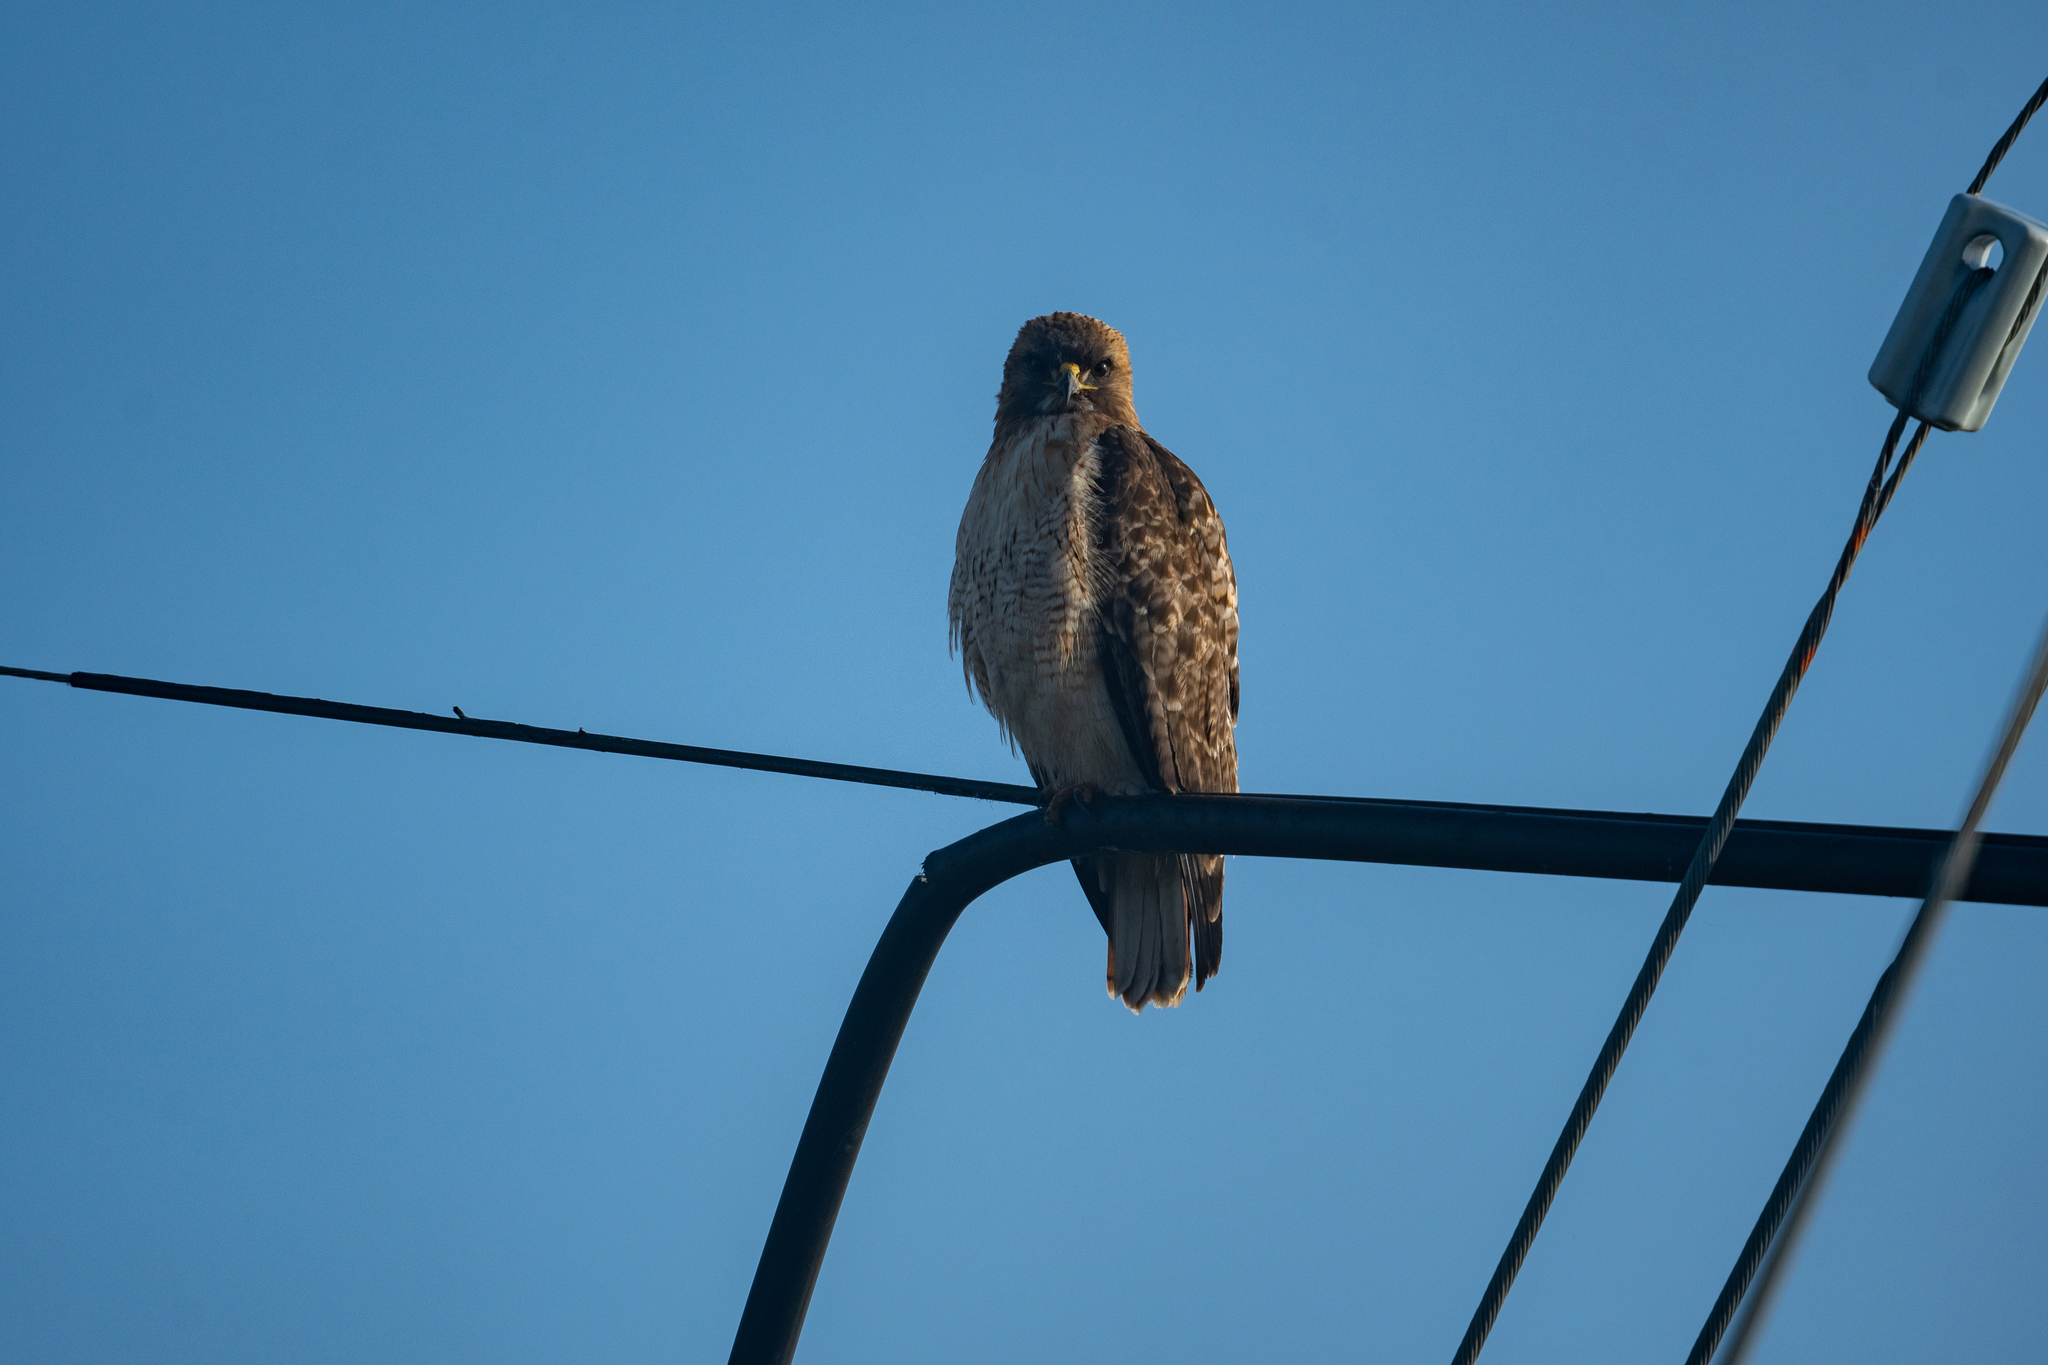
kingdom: Animalia
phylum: Chordata
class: Aves
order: Accipitriformes
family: Accipitridae
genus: Buteo
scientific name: Buteo jamaicensis
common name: Red-tailed hawk
